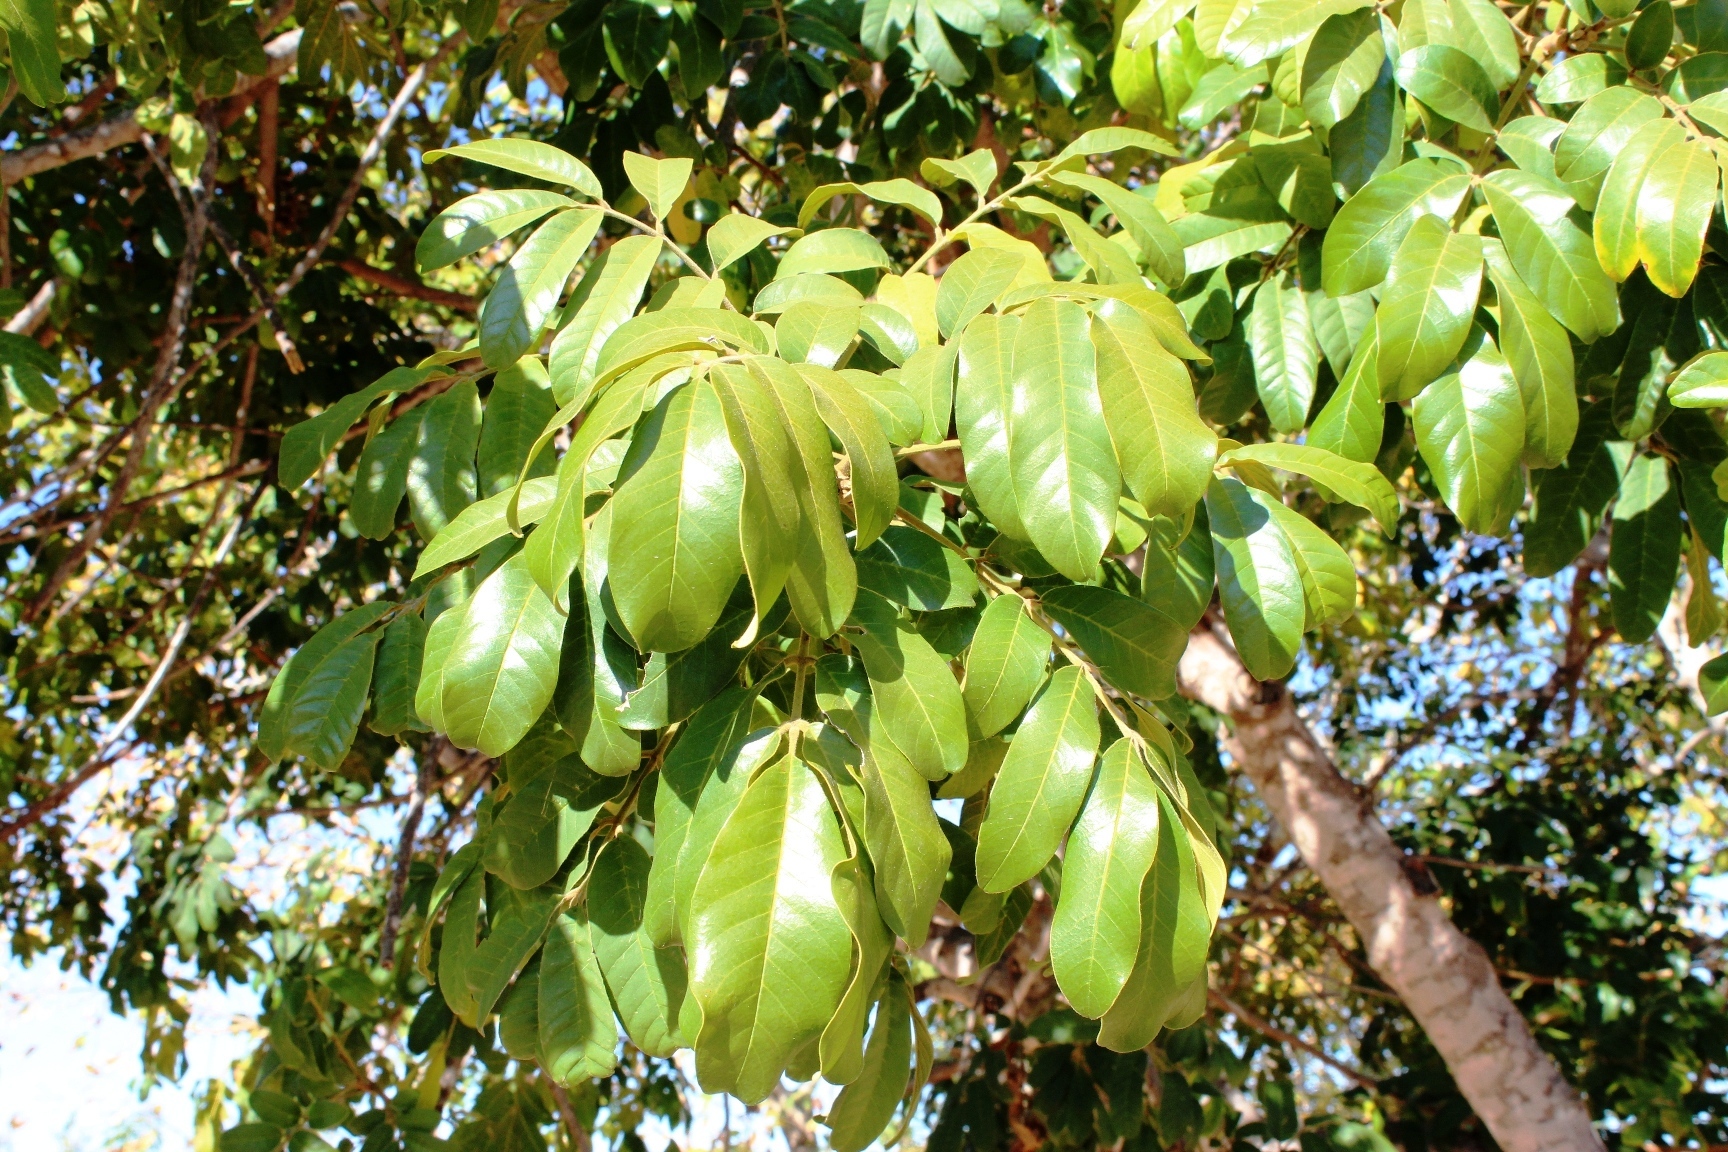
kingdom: Plantae
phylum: Tracheophyta
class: Magnoliopsida
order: Sapindales
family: Meliaceae
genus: Trichilia
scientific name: Trichilia emetica
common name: Christmas-bells
